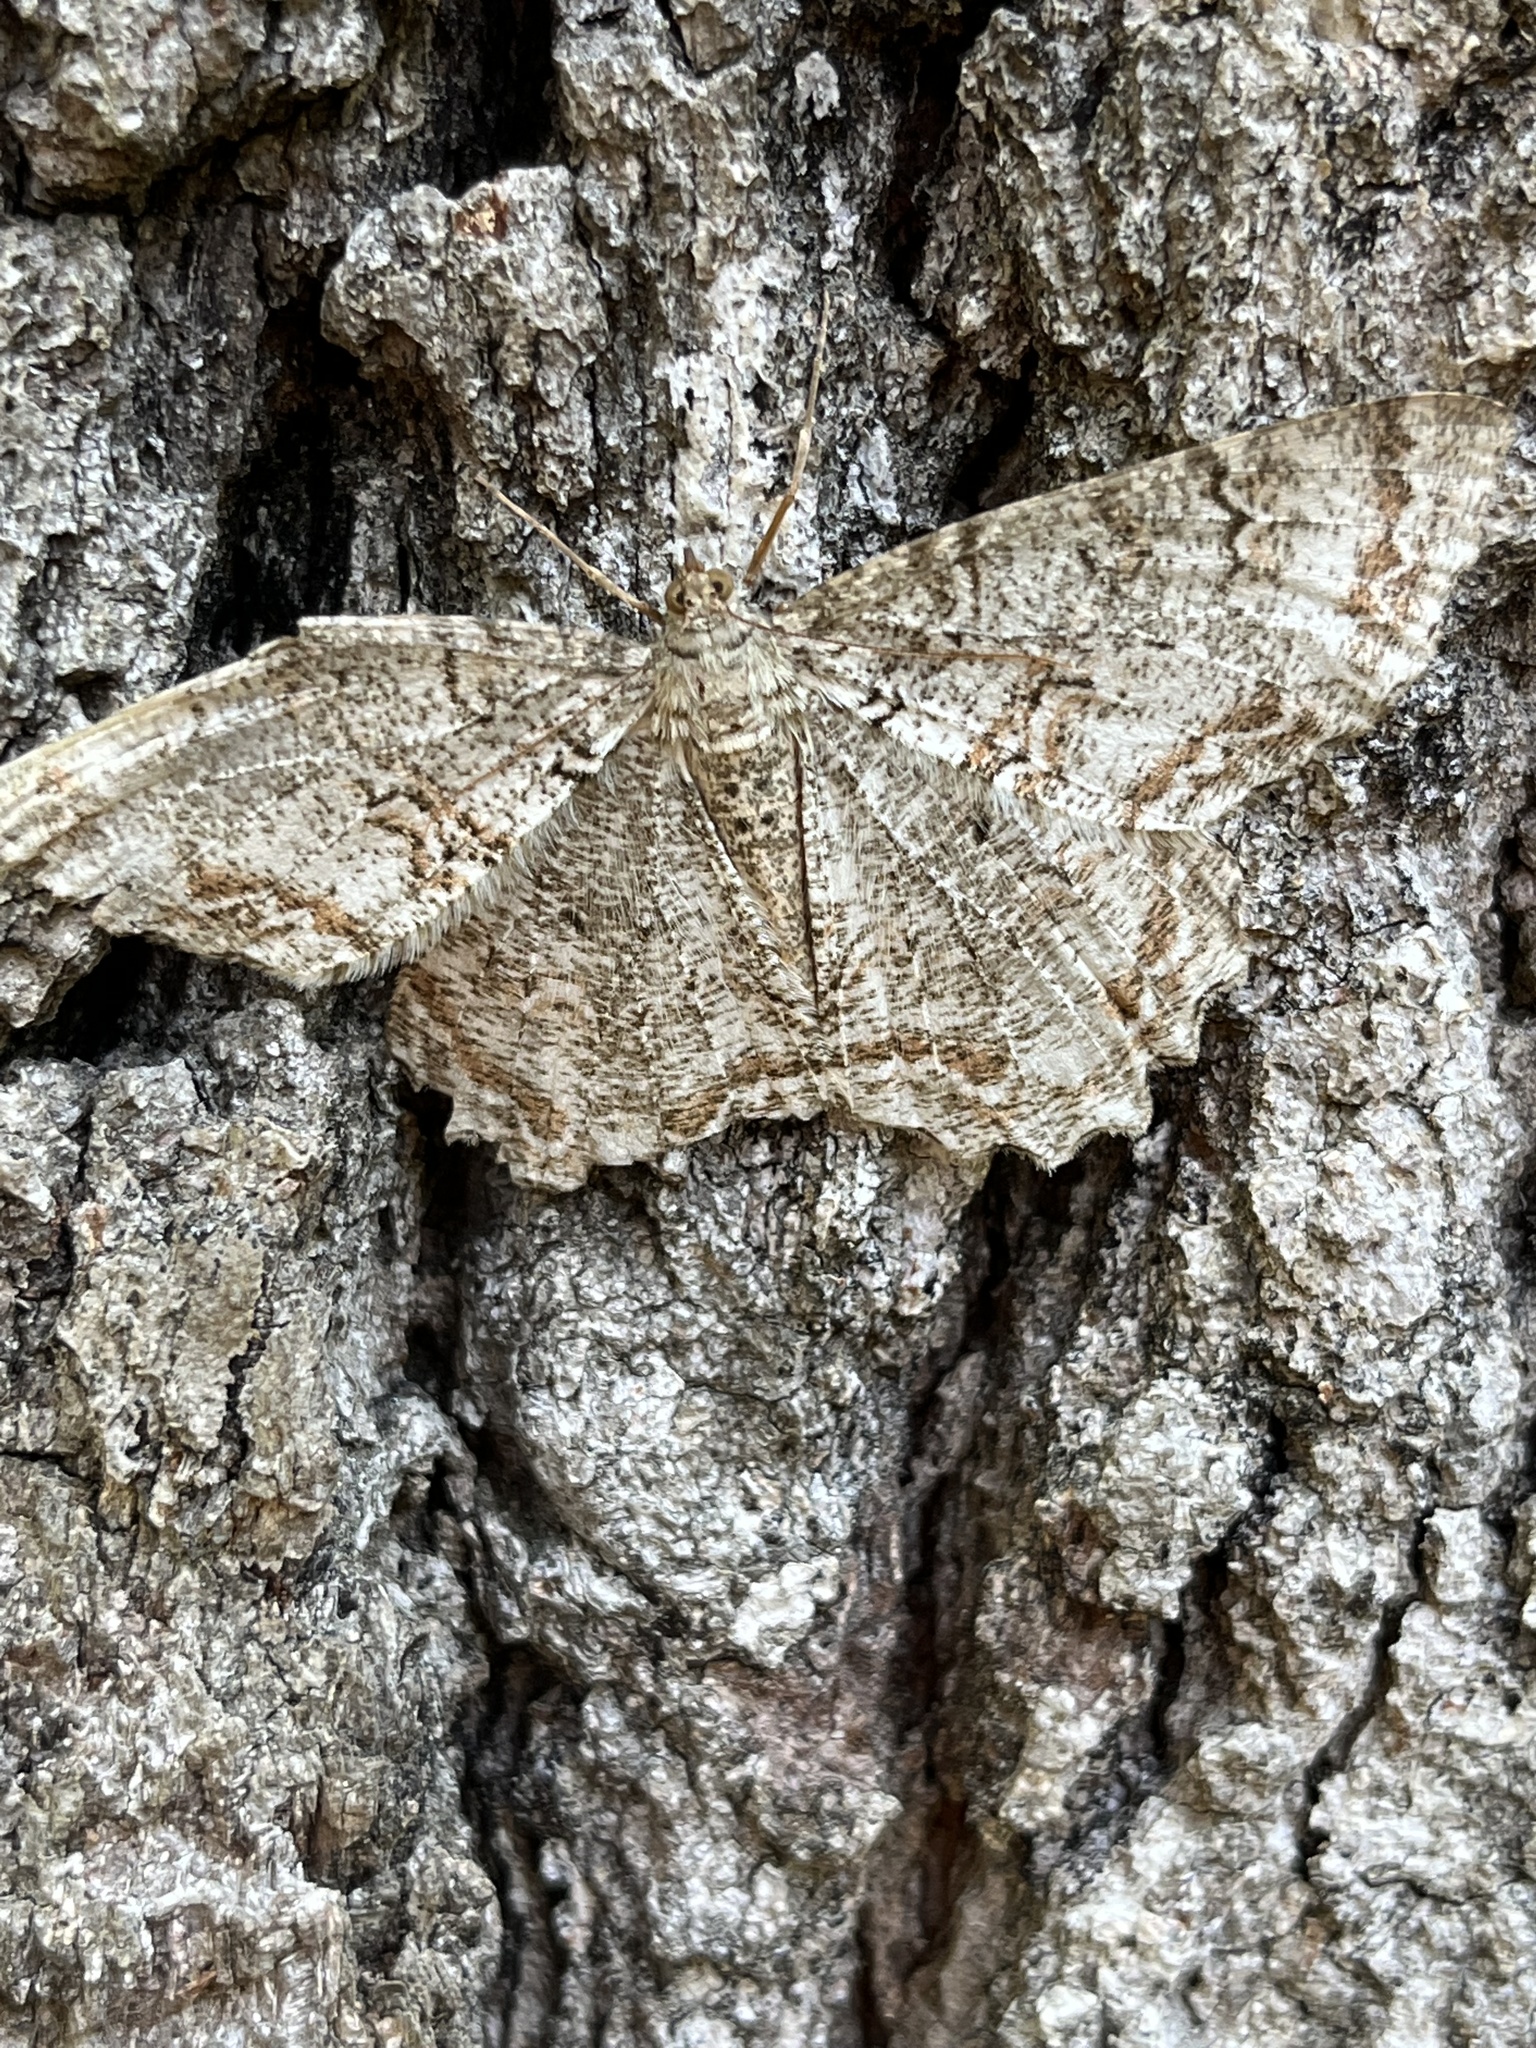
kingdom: Animalia
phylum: Arthropoda
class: Insecta
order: Lepidoptera
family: Geometridae
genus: Epimecis
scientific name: Epimecis hortaria
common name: Tulip-tree beauty
